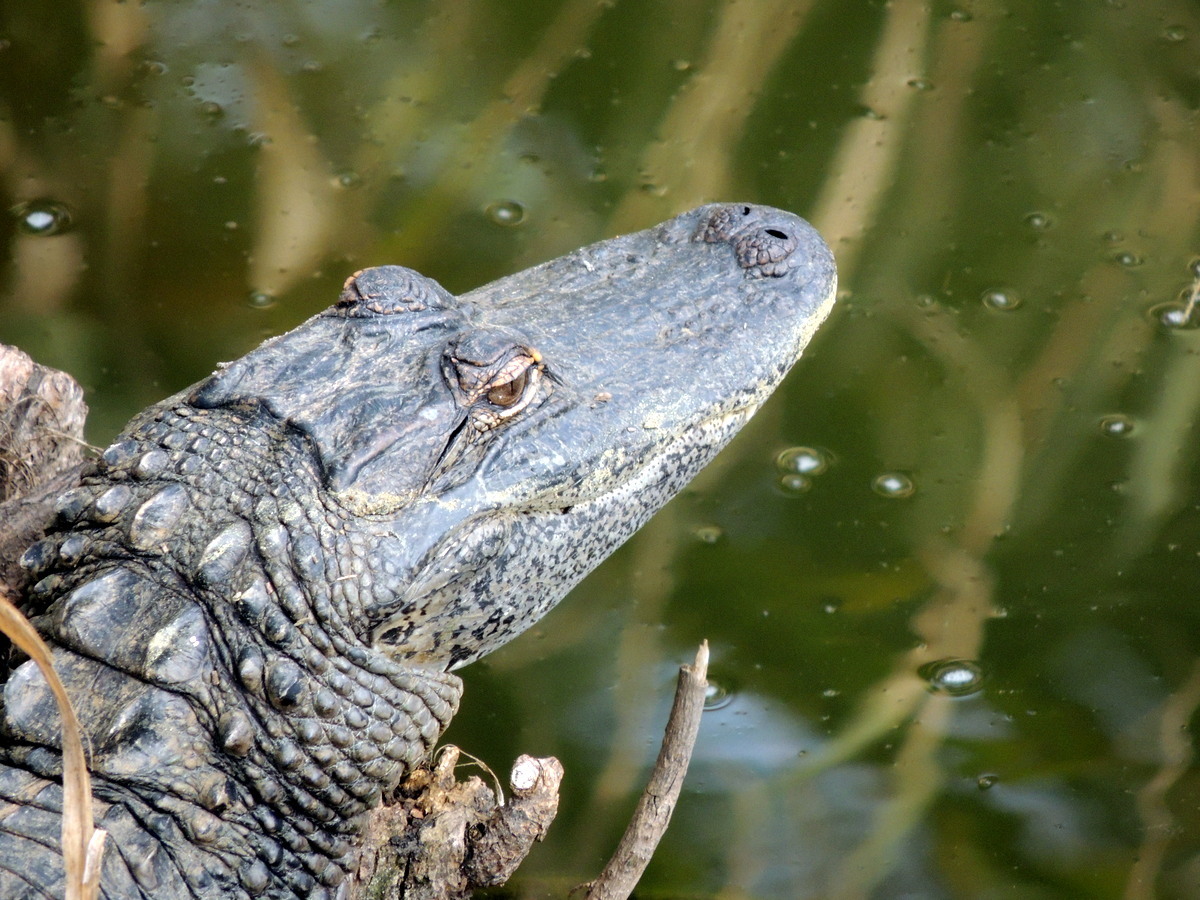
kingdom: Animalia
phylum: Chordata
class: Crocodylia
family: Alligatoridae
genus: Alligator
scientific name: Alligator mississippiensis
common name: American alligator
